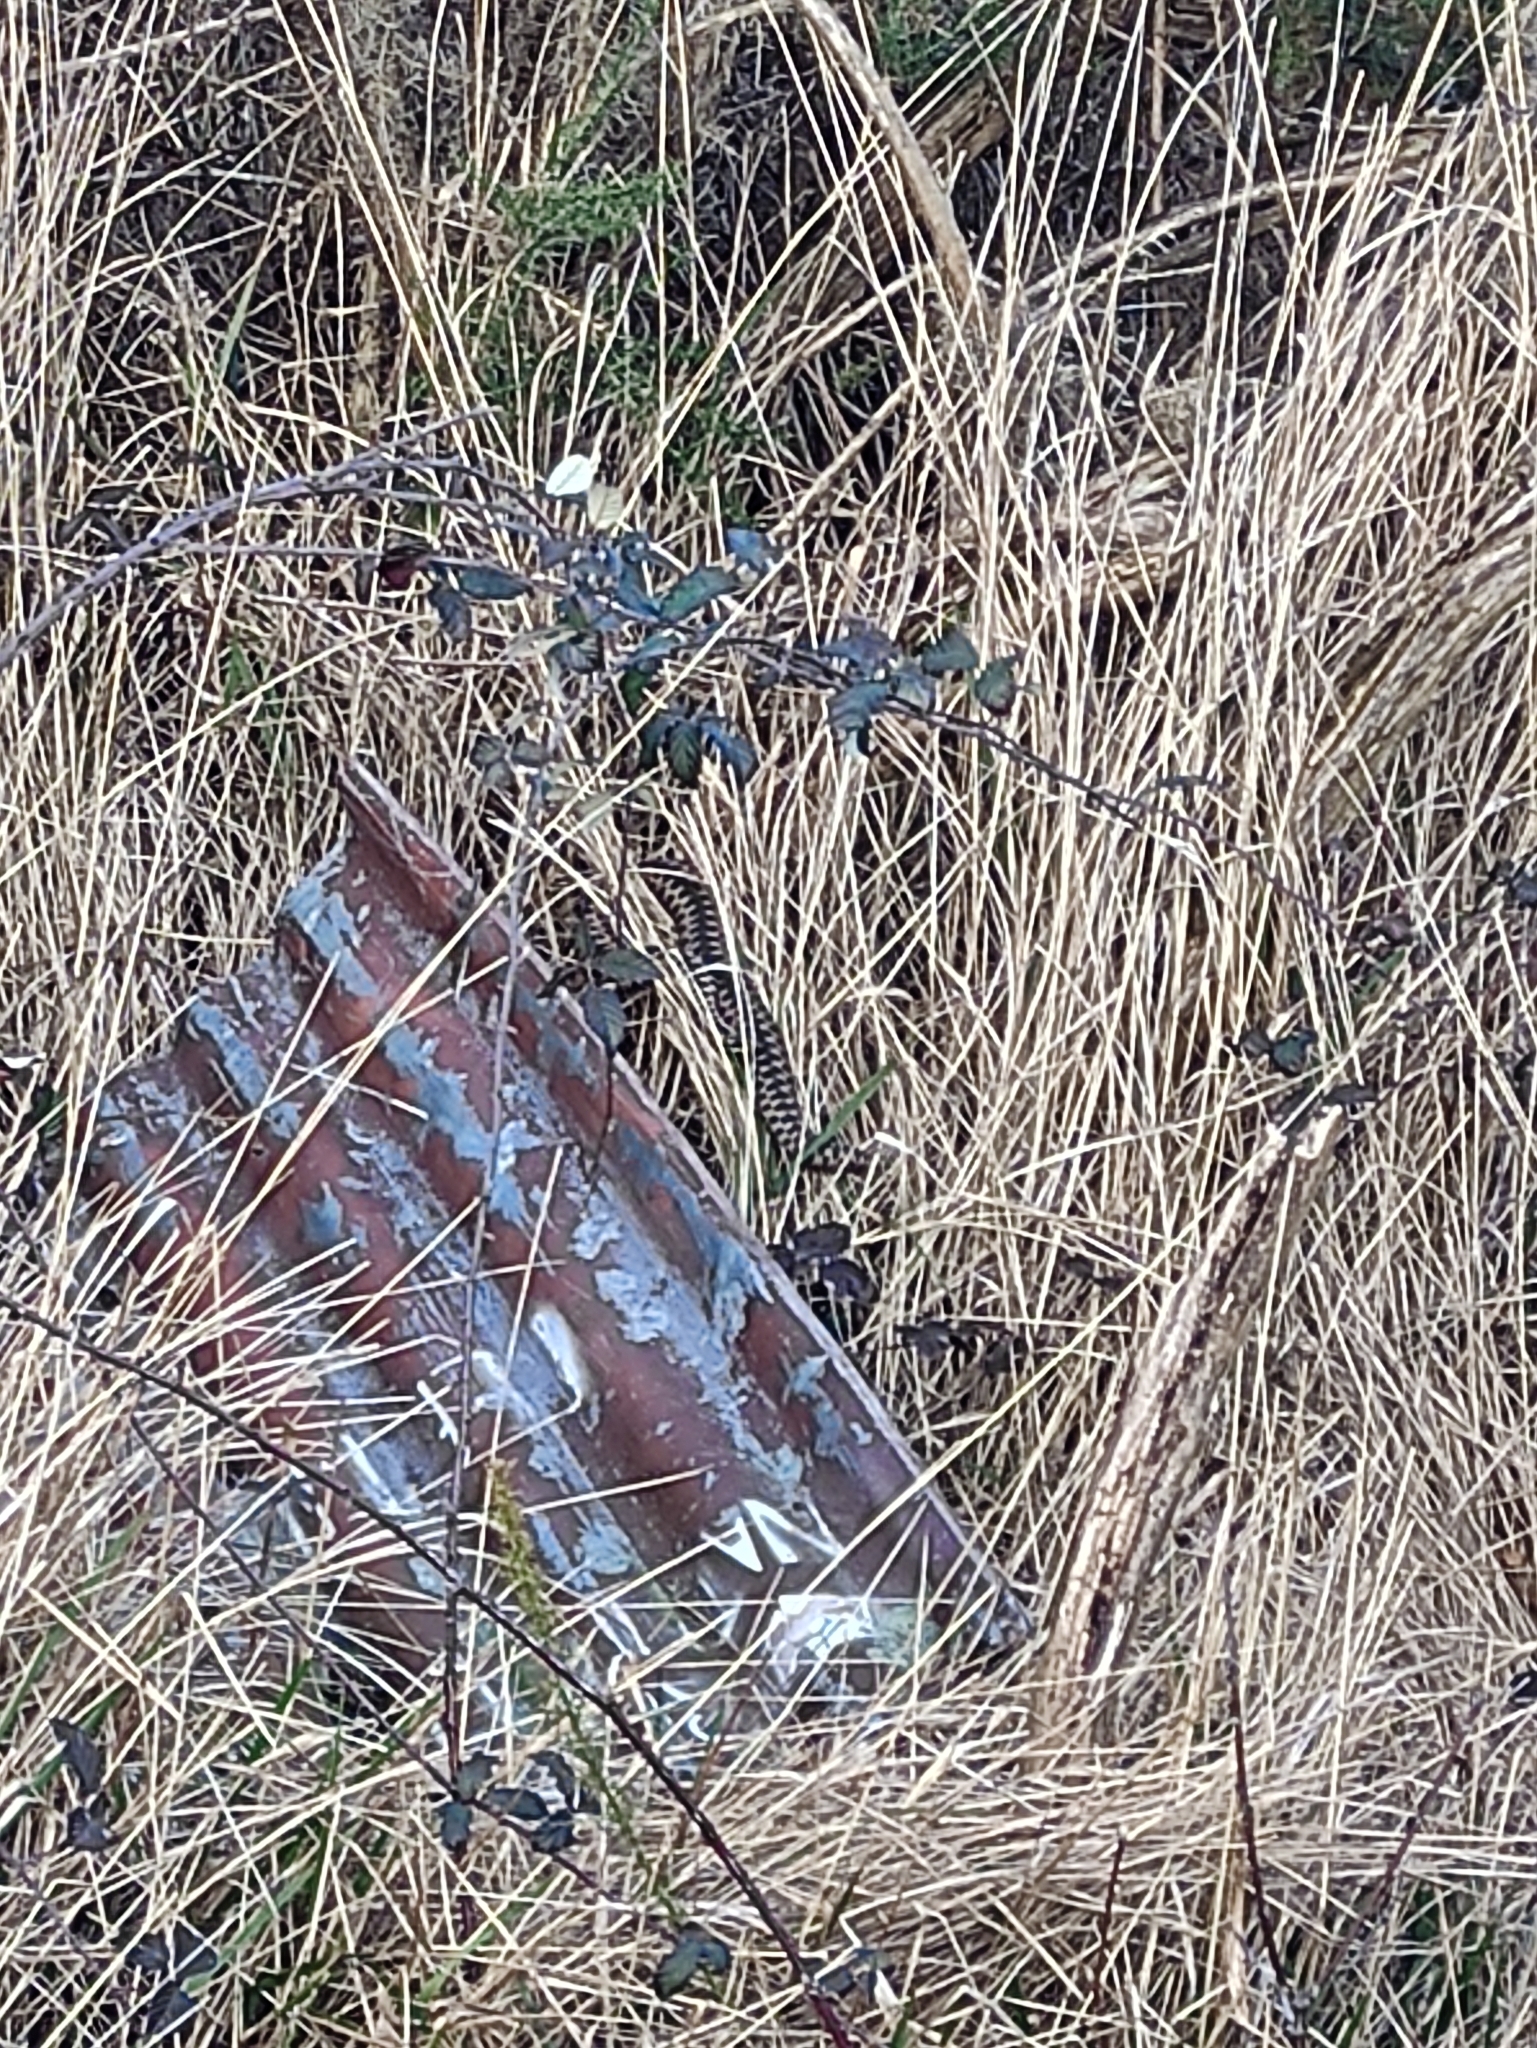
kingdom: Animalia
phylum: Chordata
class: Squamata
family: Viperidae
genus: Vipera
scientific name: Vipera berus
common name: Adder
